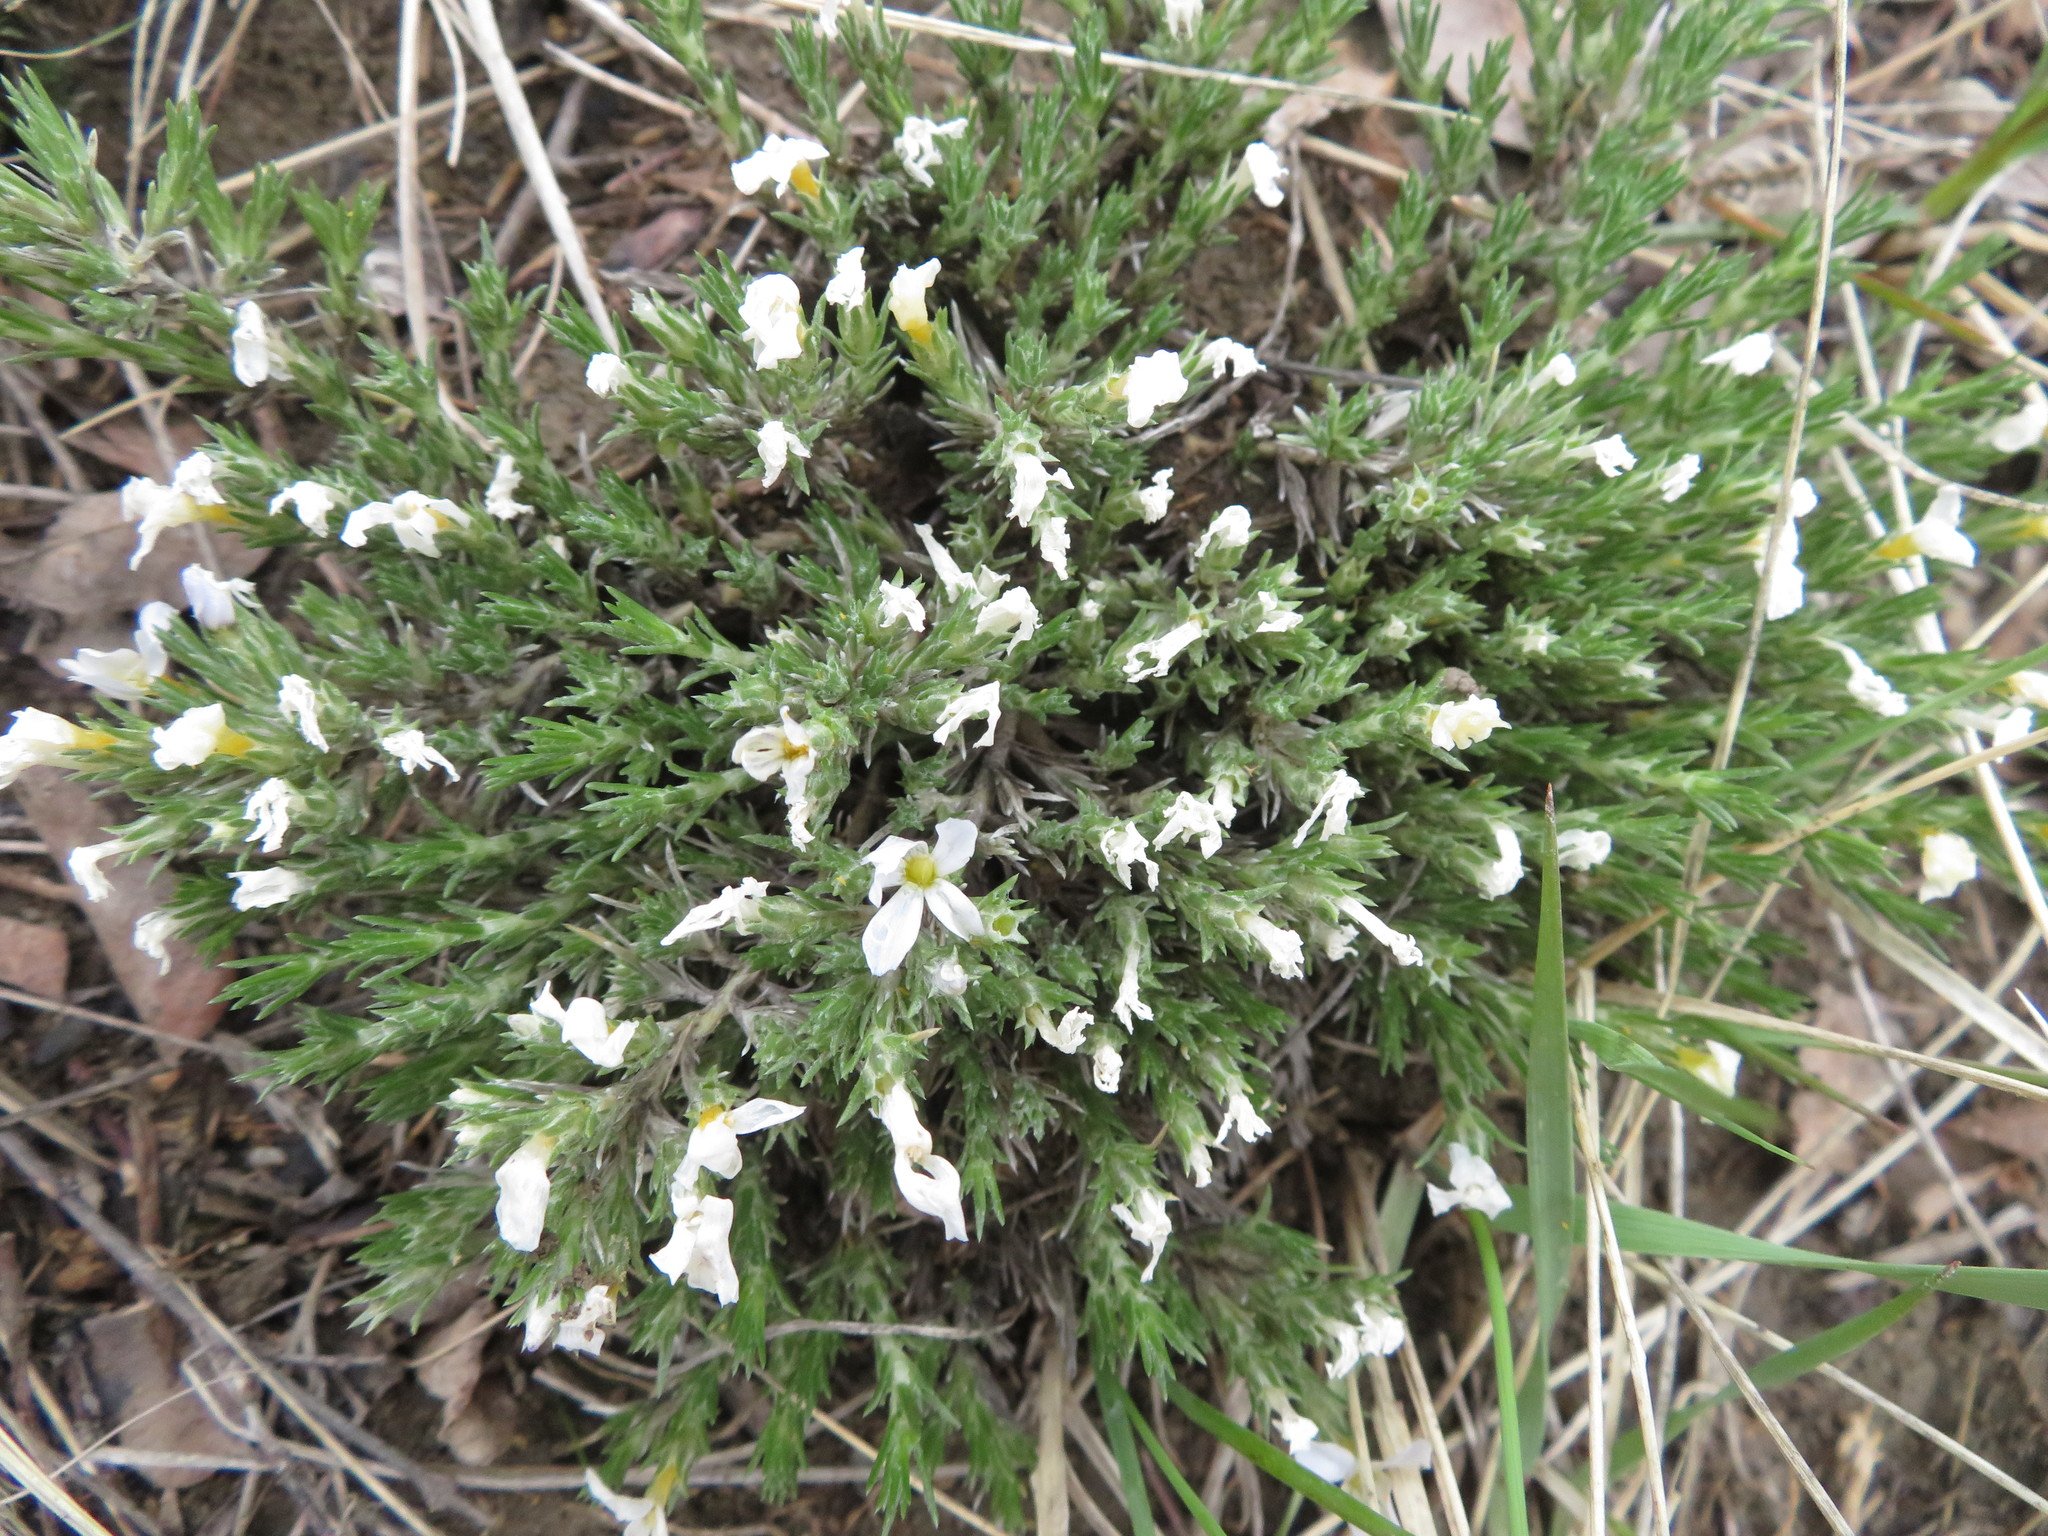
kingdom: Plantae
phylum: Tracheophyta
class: Magnoliopsida
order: Ericales
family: Polemoniaceae
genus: Phlox
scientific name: Phlox hoodii
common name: Moss phlox
